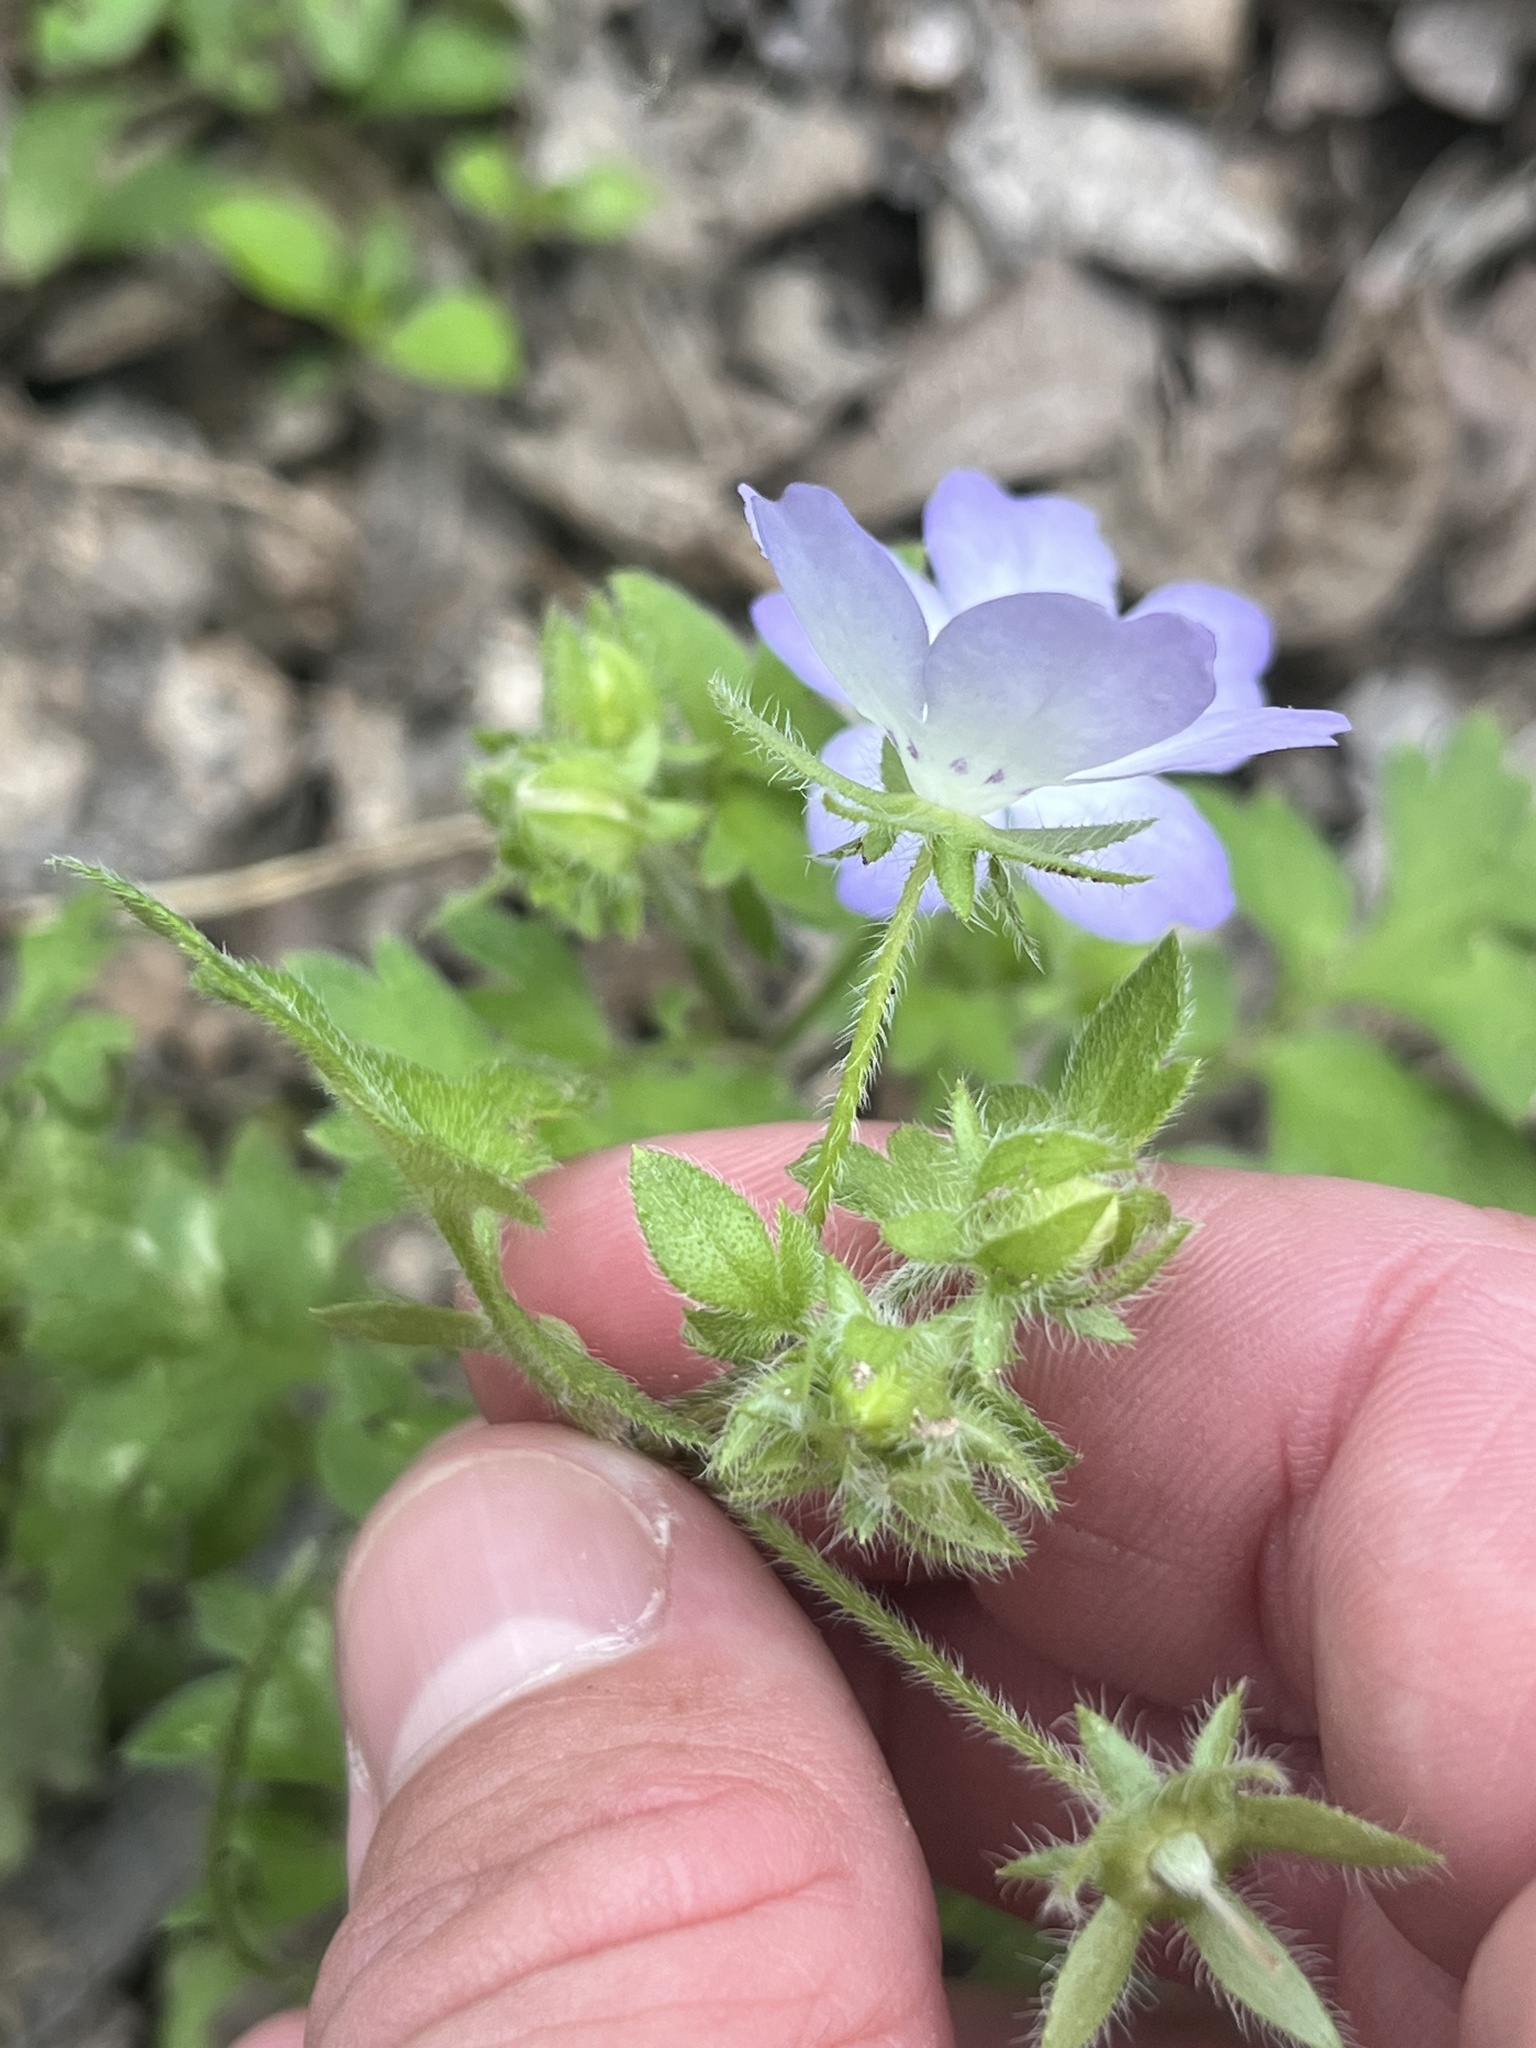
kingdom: Plantae
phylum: Tracheophyta
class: Magnoliopsida
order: Boraginales
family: Hydrophyllaceae
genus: Nemophila
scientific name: Nemophila phacelioides
